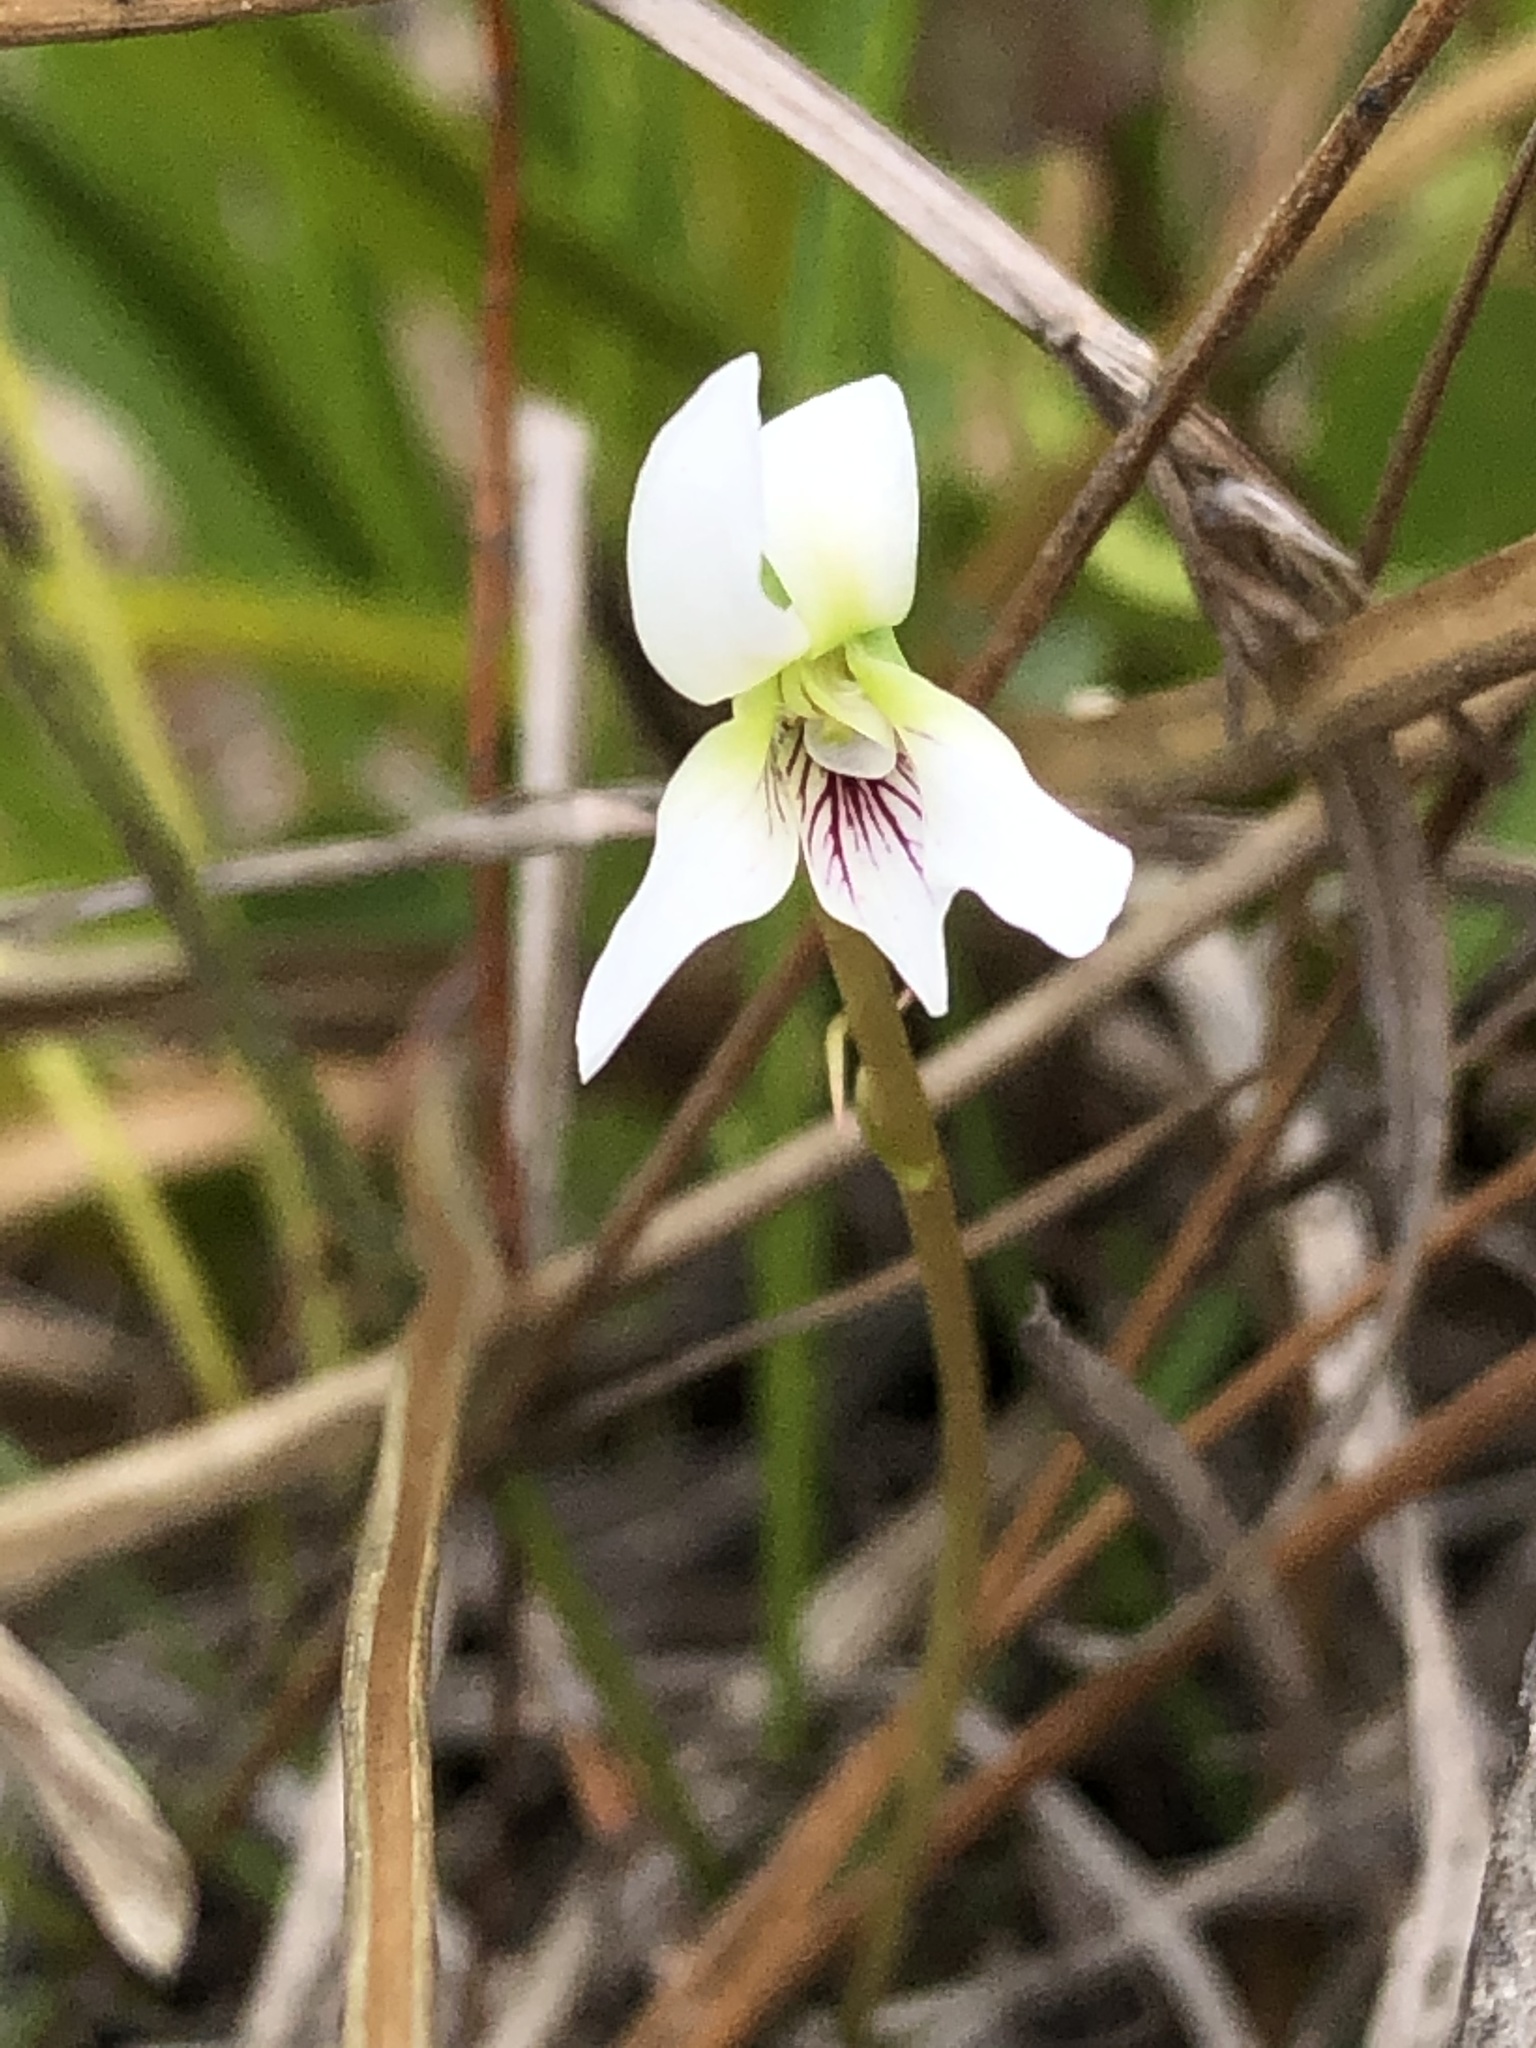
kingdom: Plantae
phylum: Tracheophyta
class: Magnoliopsida
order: Malpighiales
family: Violaceae
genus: Viola
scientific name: Viola vittata
